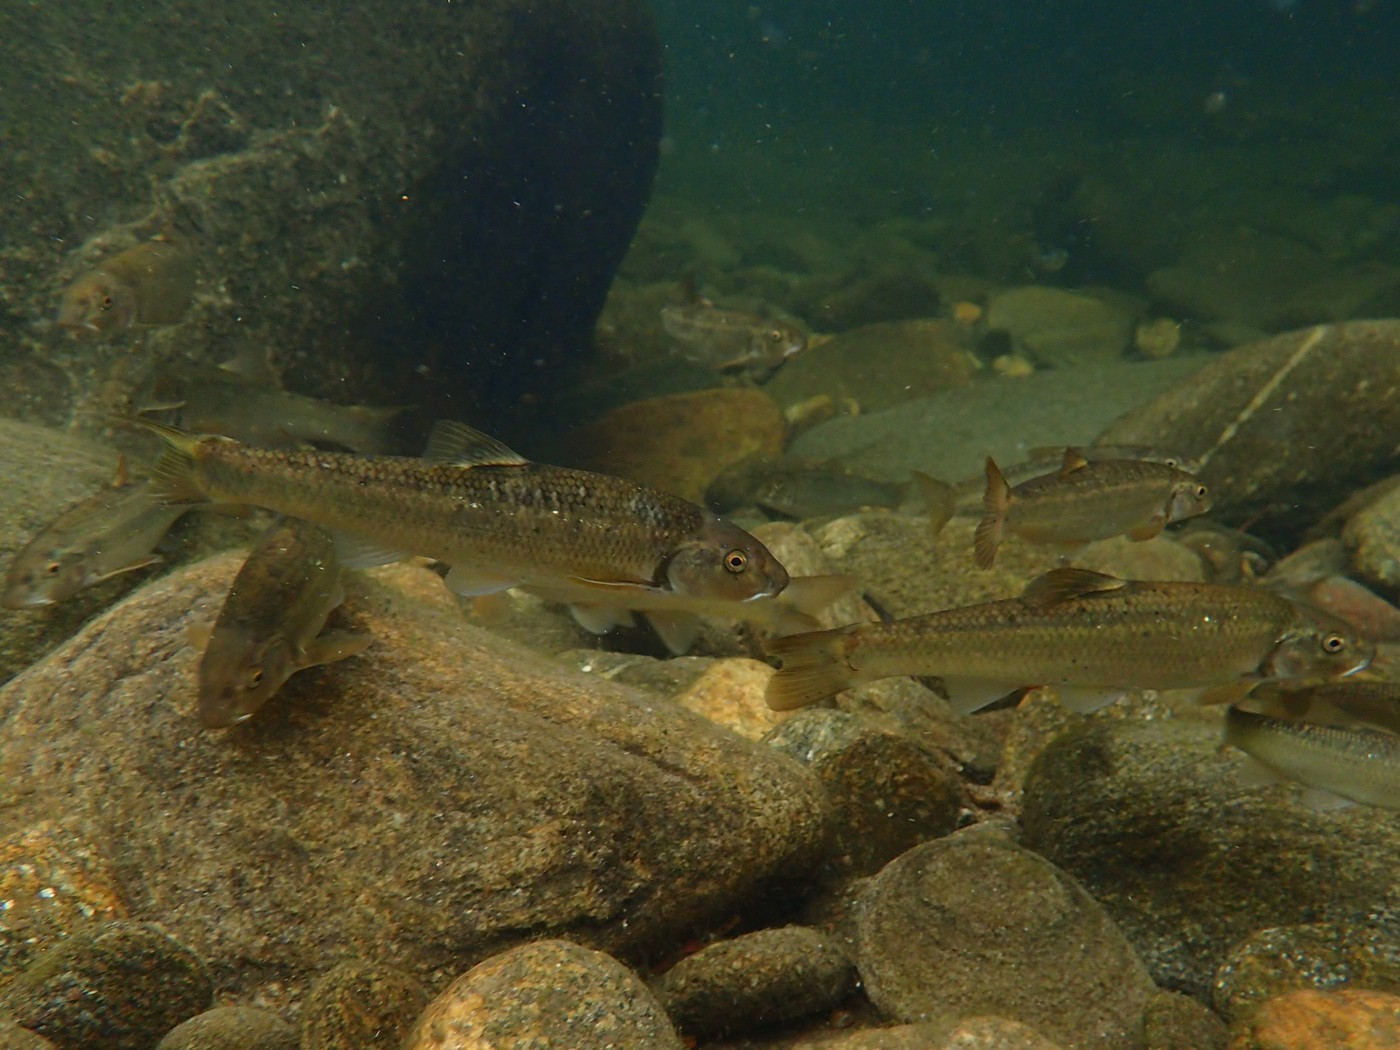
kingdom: Animalia
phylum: Chordata
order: Cypriniformes
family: Cyprinidae
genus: Campostoma
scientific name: Campostoma anomalum
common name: Central stoneroller
